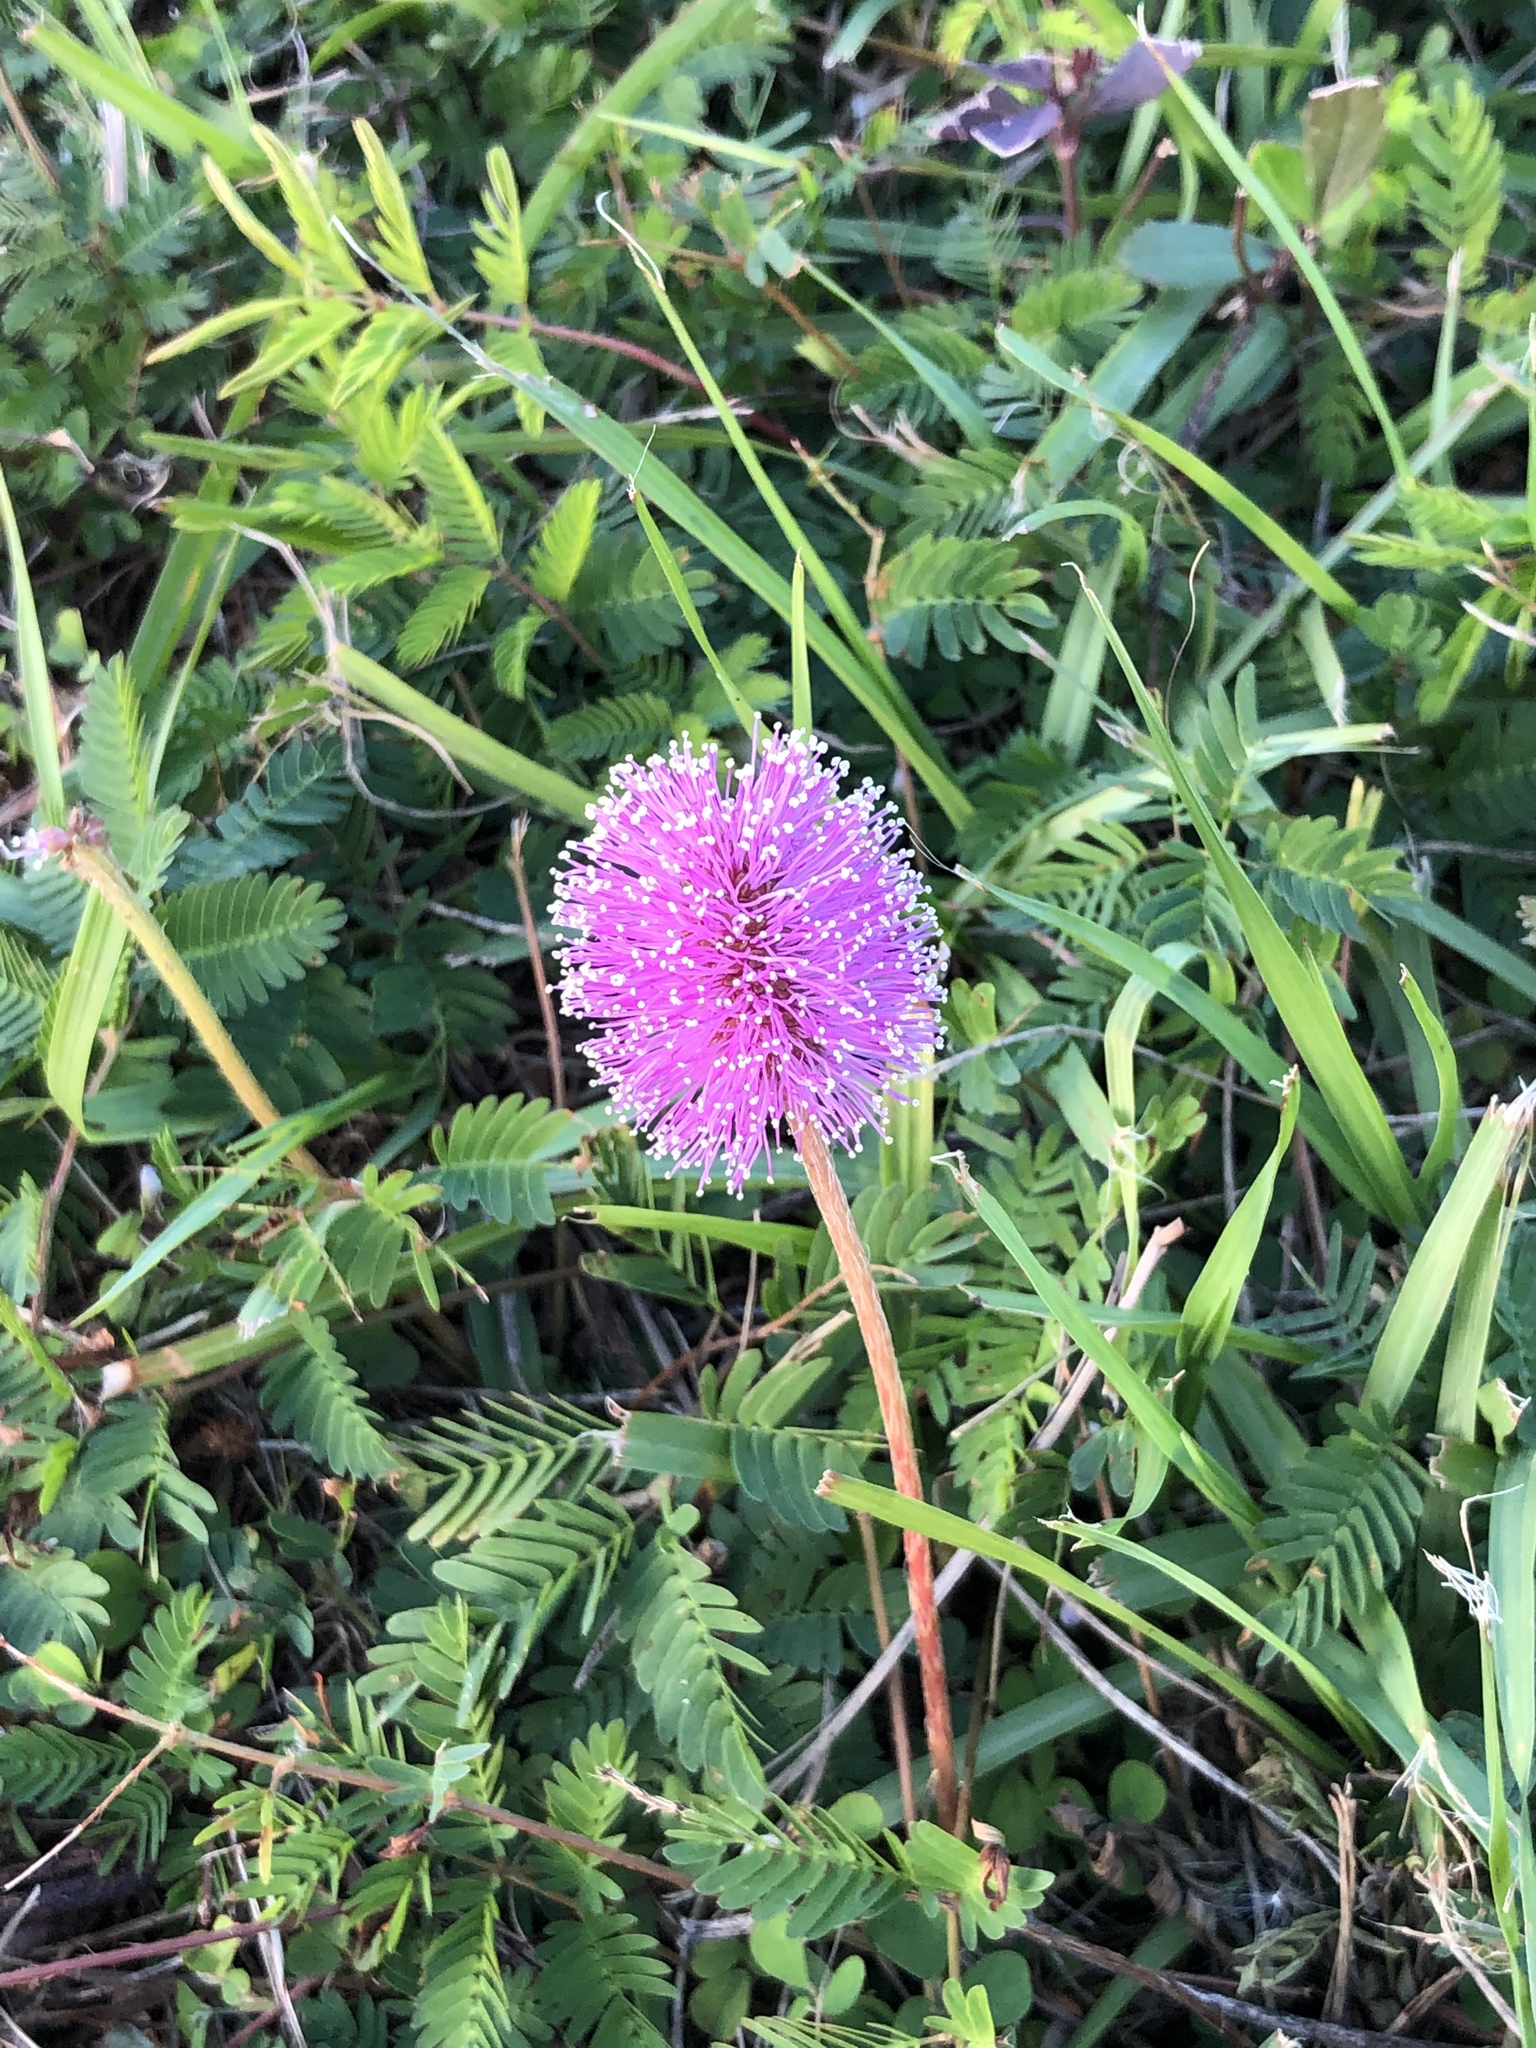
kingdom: Plantae
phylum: Tracheophyta
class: Magnoliopsida
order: Fabales
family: Fabaceae
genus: Mimosa
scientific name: Mimosa strigillosa
